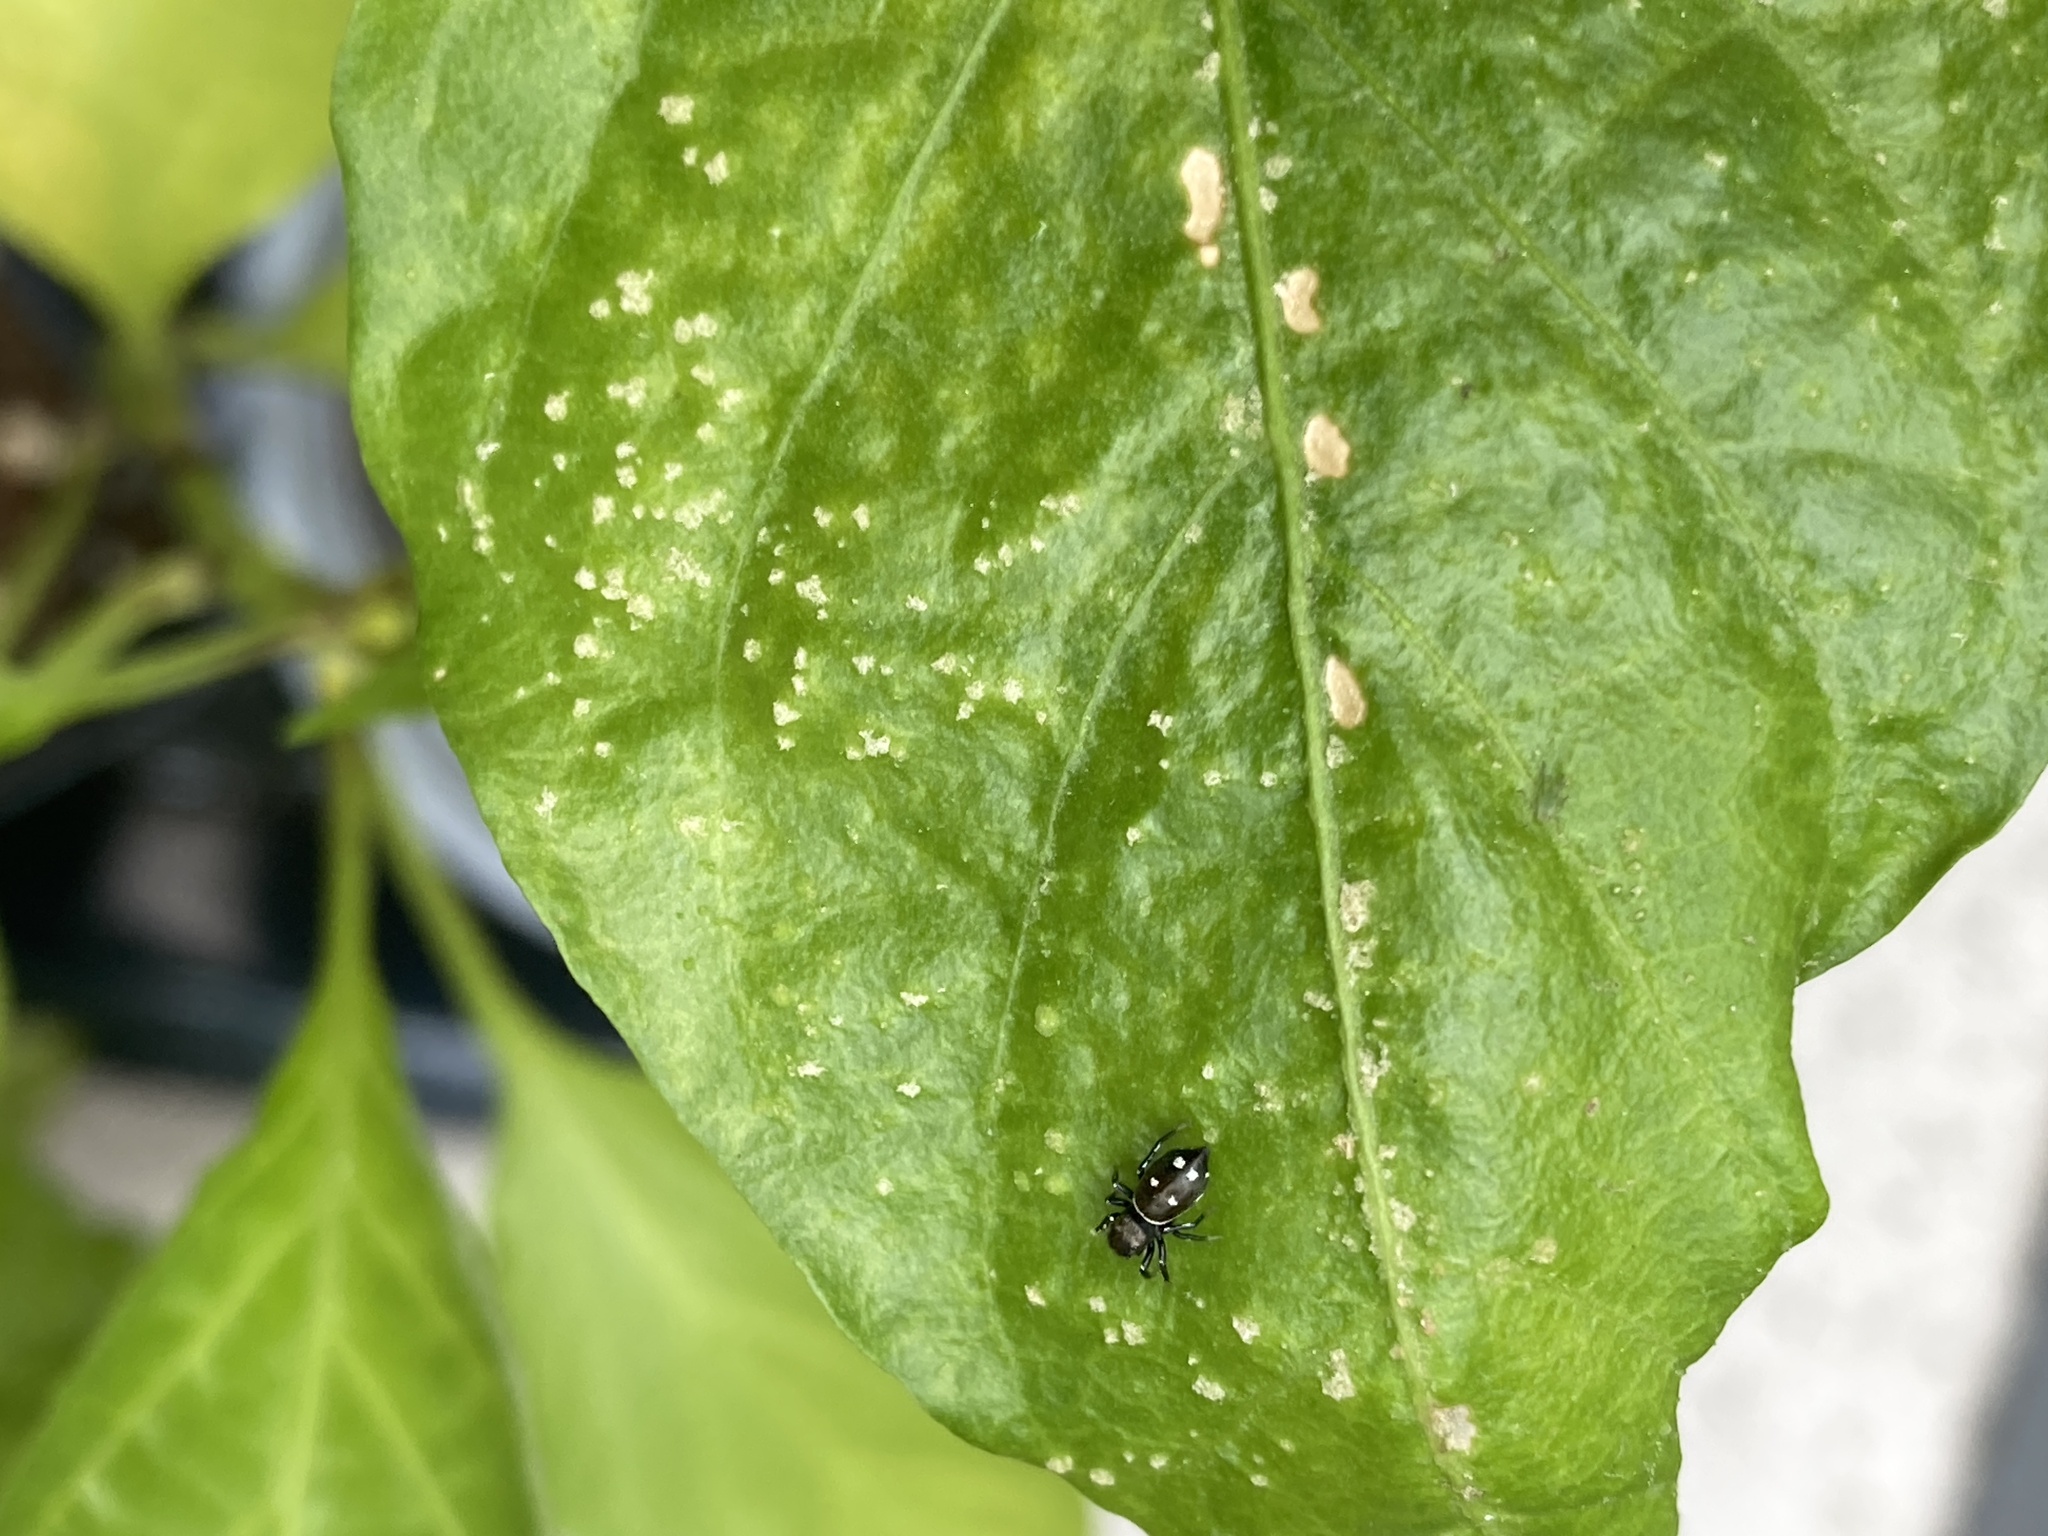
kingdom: Animalia
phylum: Arthropoda
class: Arachnida
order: Araneae
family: Salticidae
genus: Heliophanus
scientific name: Heliophanus kochii
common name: Sun jumping spider
